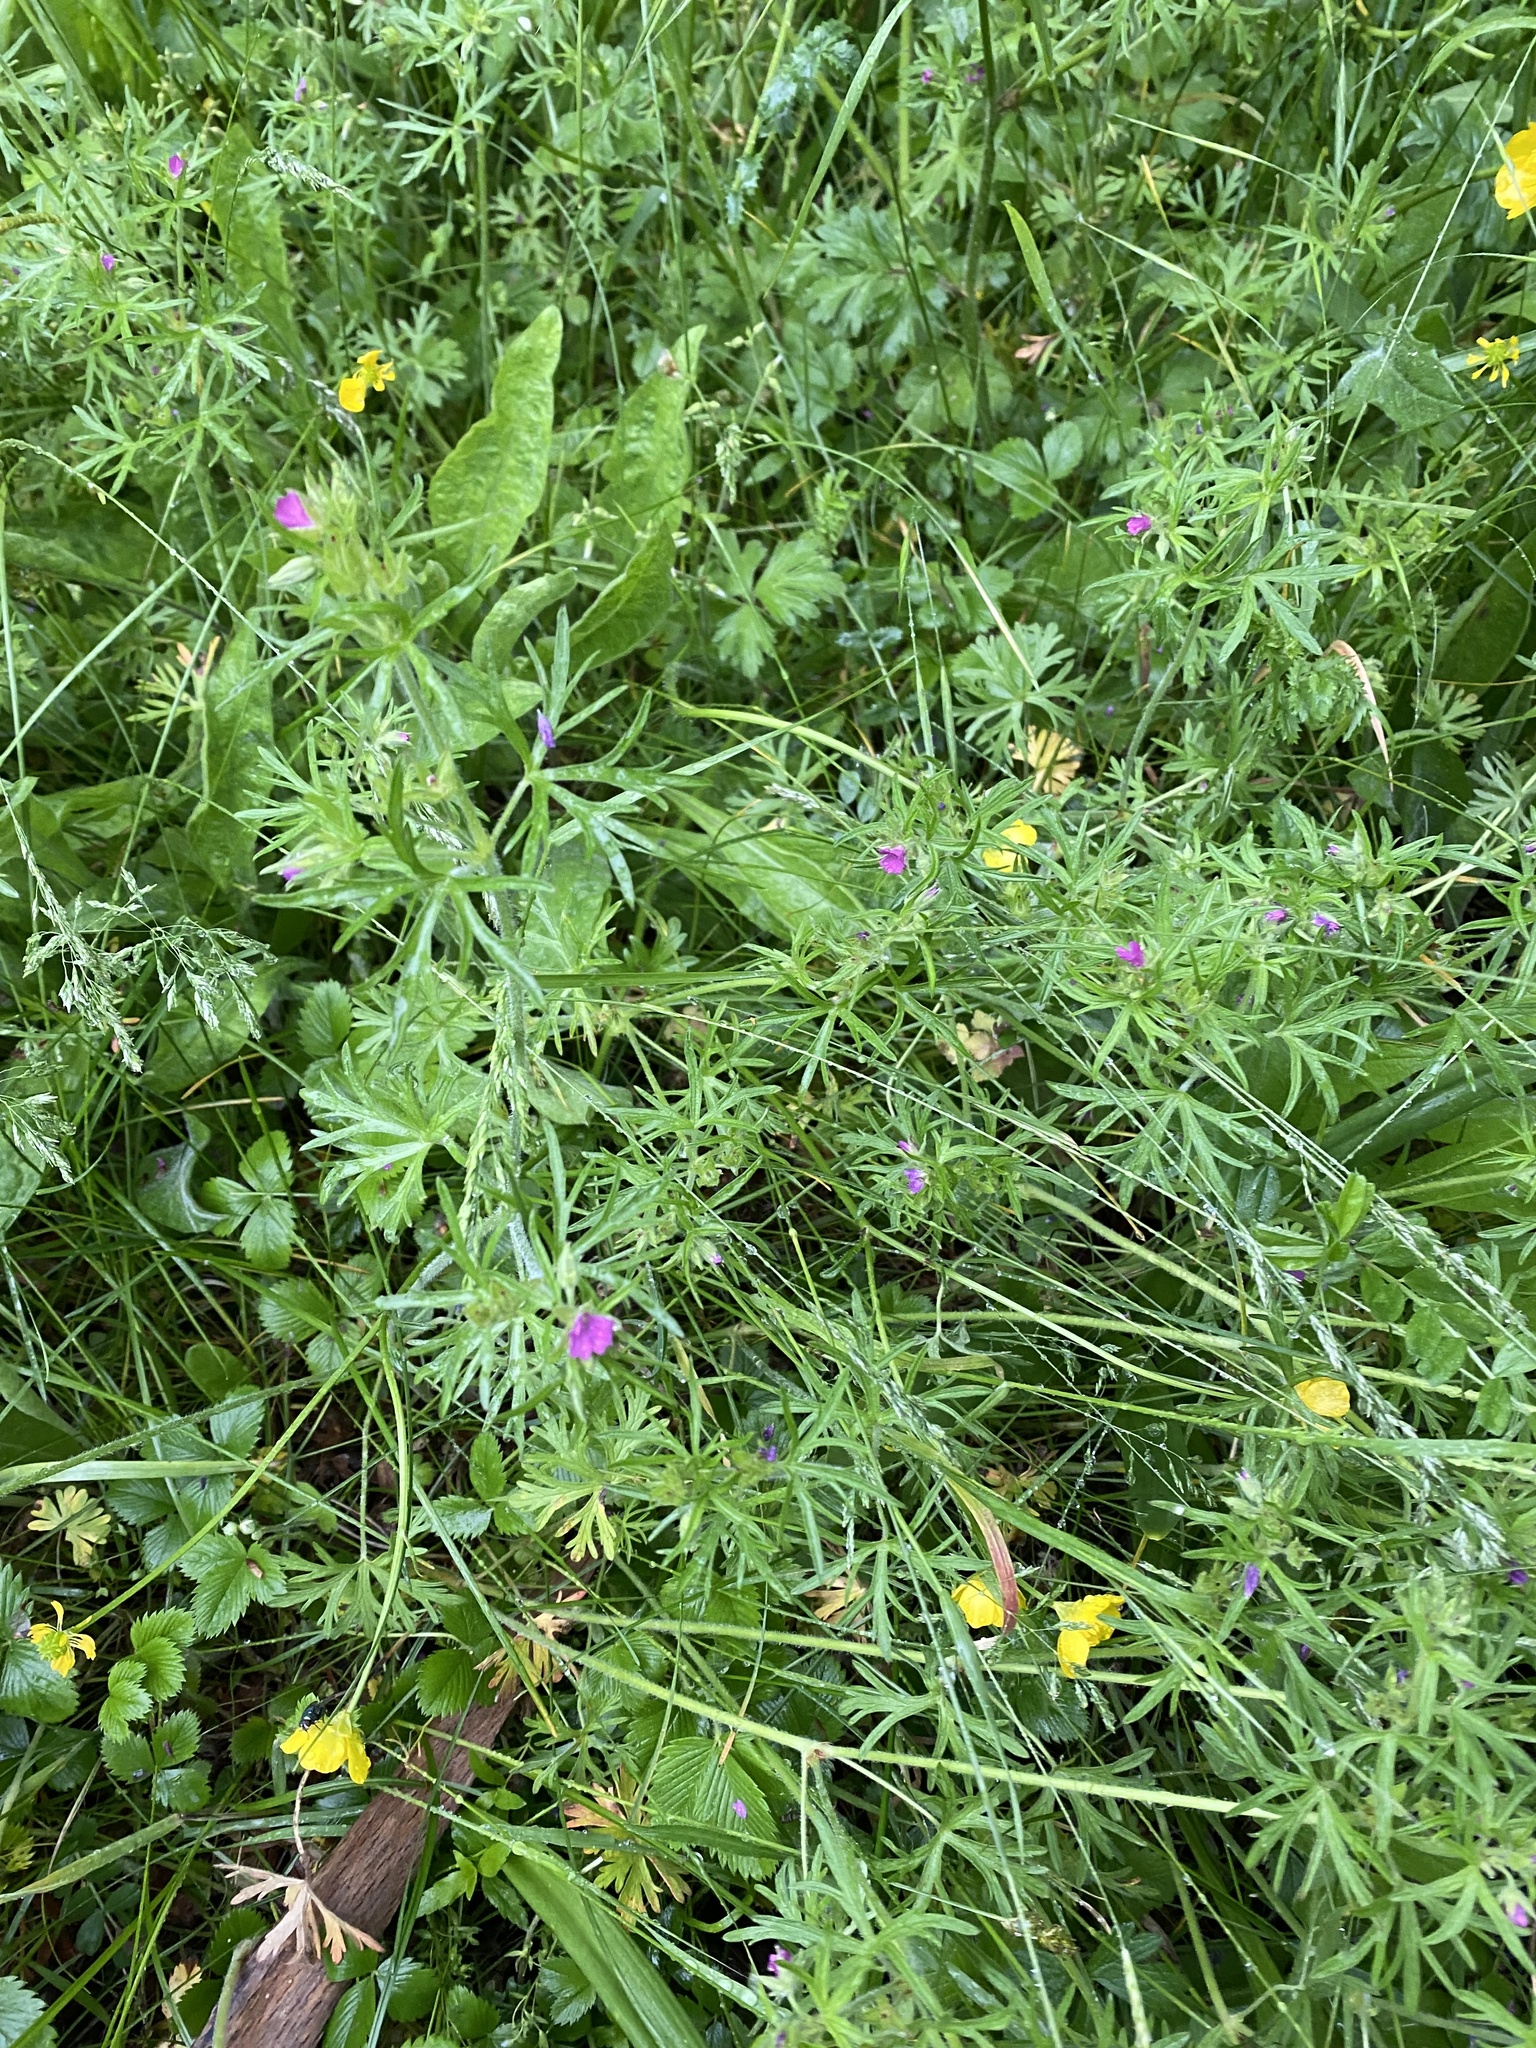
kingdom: Plantae
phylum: Tracheophyta
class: Magnoliopsida
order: Geraniales
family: Geraniaceae
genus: Geranium
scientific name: Geranium dissectum
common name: Cut-leaved crane's-bill
